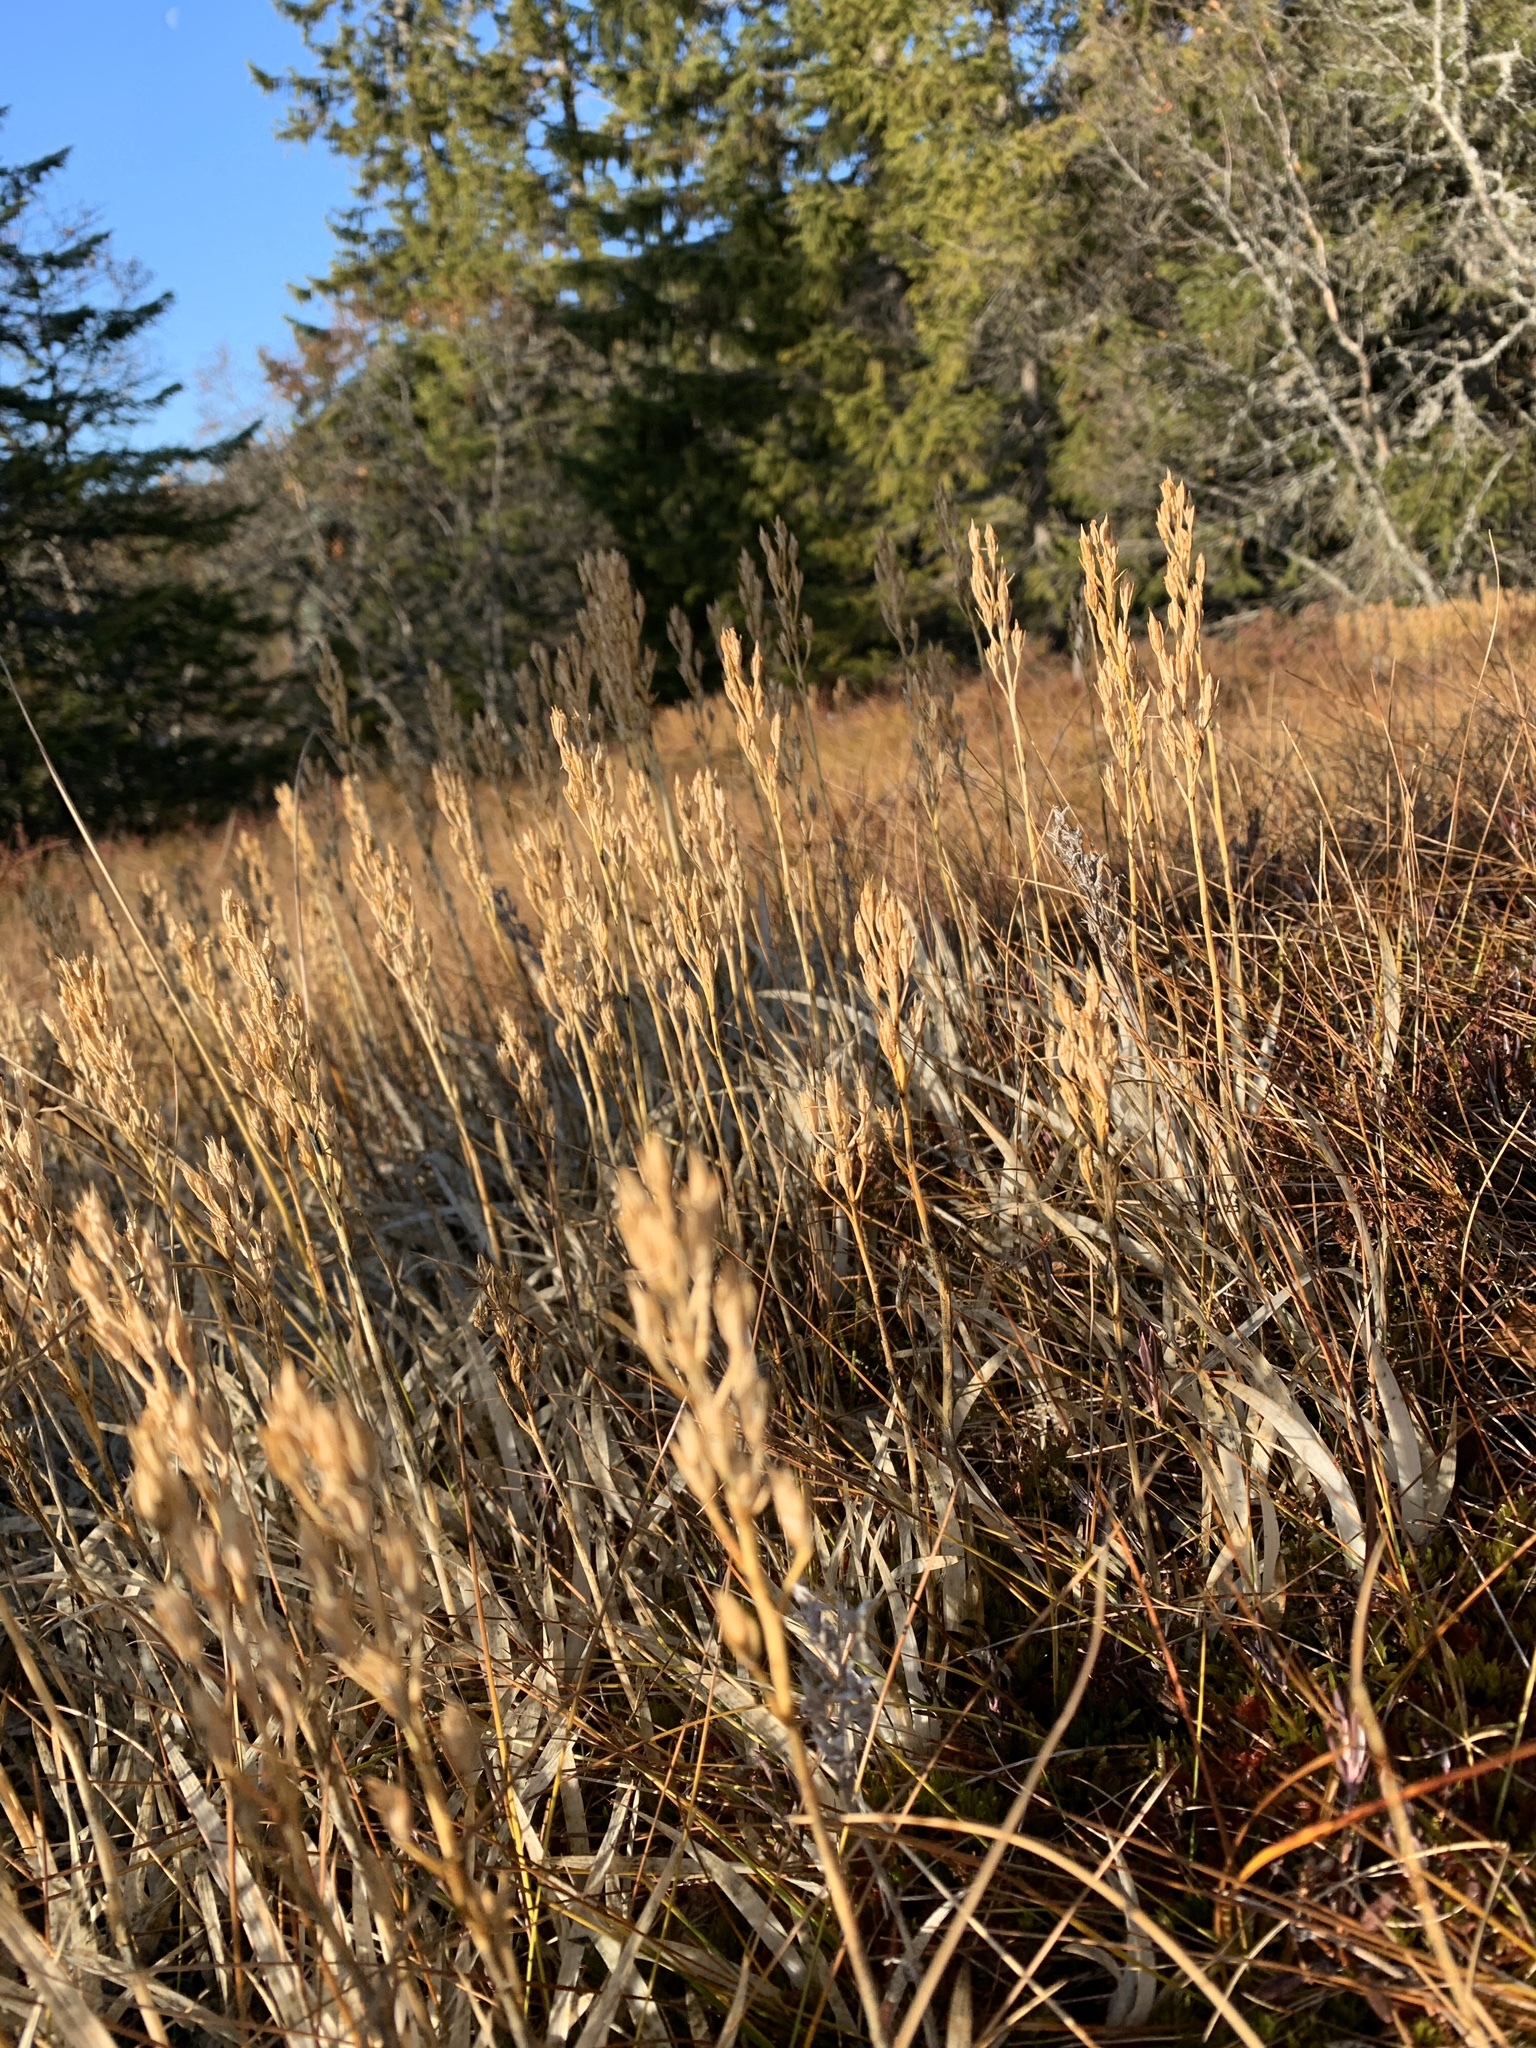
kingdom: Plantae
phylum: Tracheophyta
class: Liliopsida
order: Dioscoreales
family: Nartheciaceae
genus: Narthecium
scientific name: Narthecium ossifragum
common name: Bog asphodel
